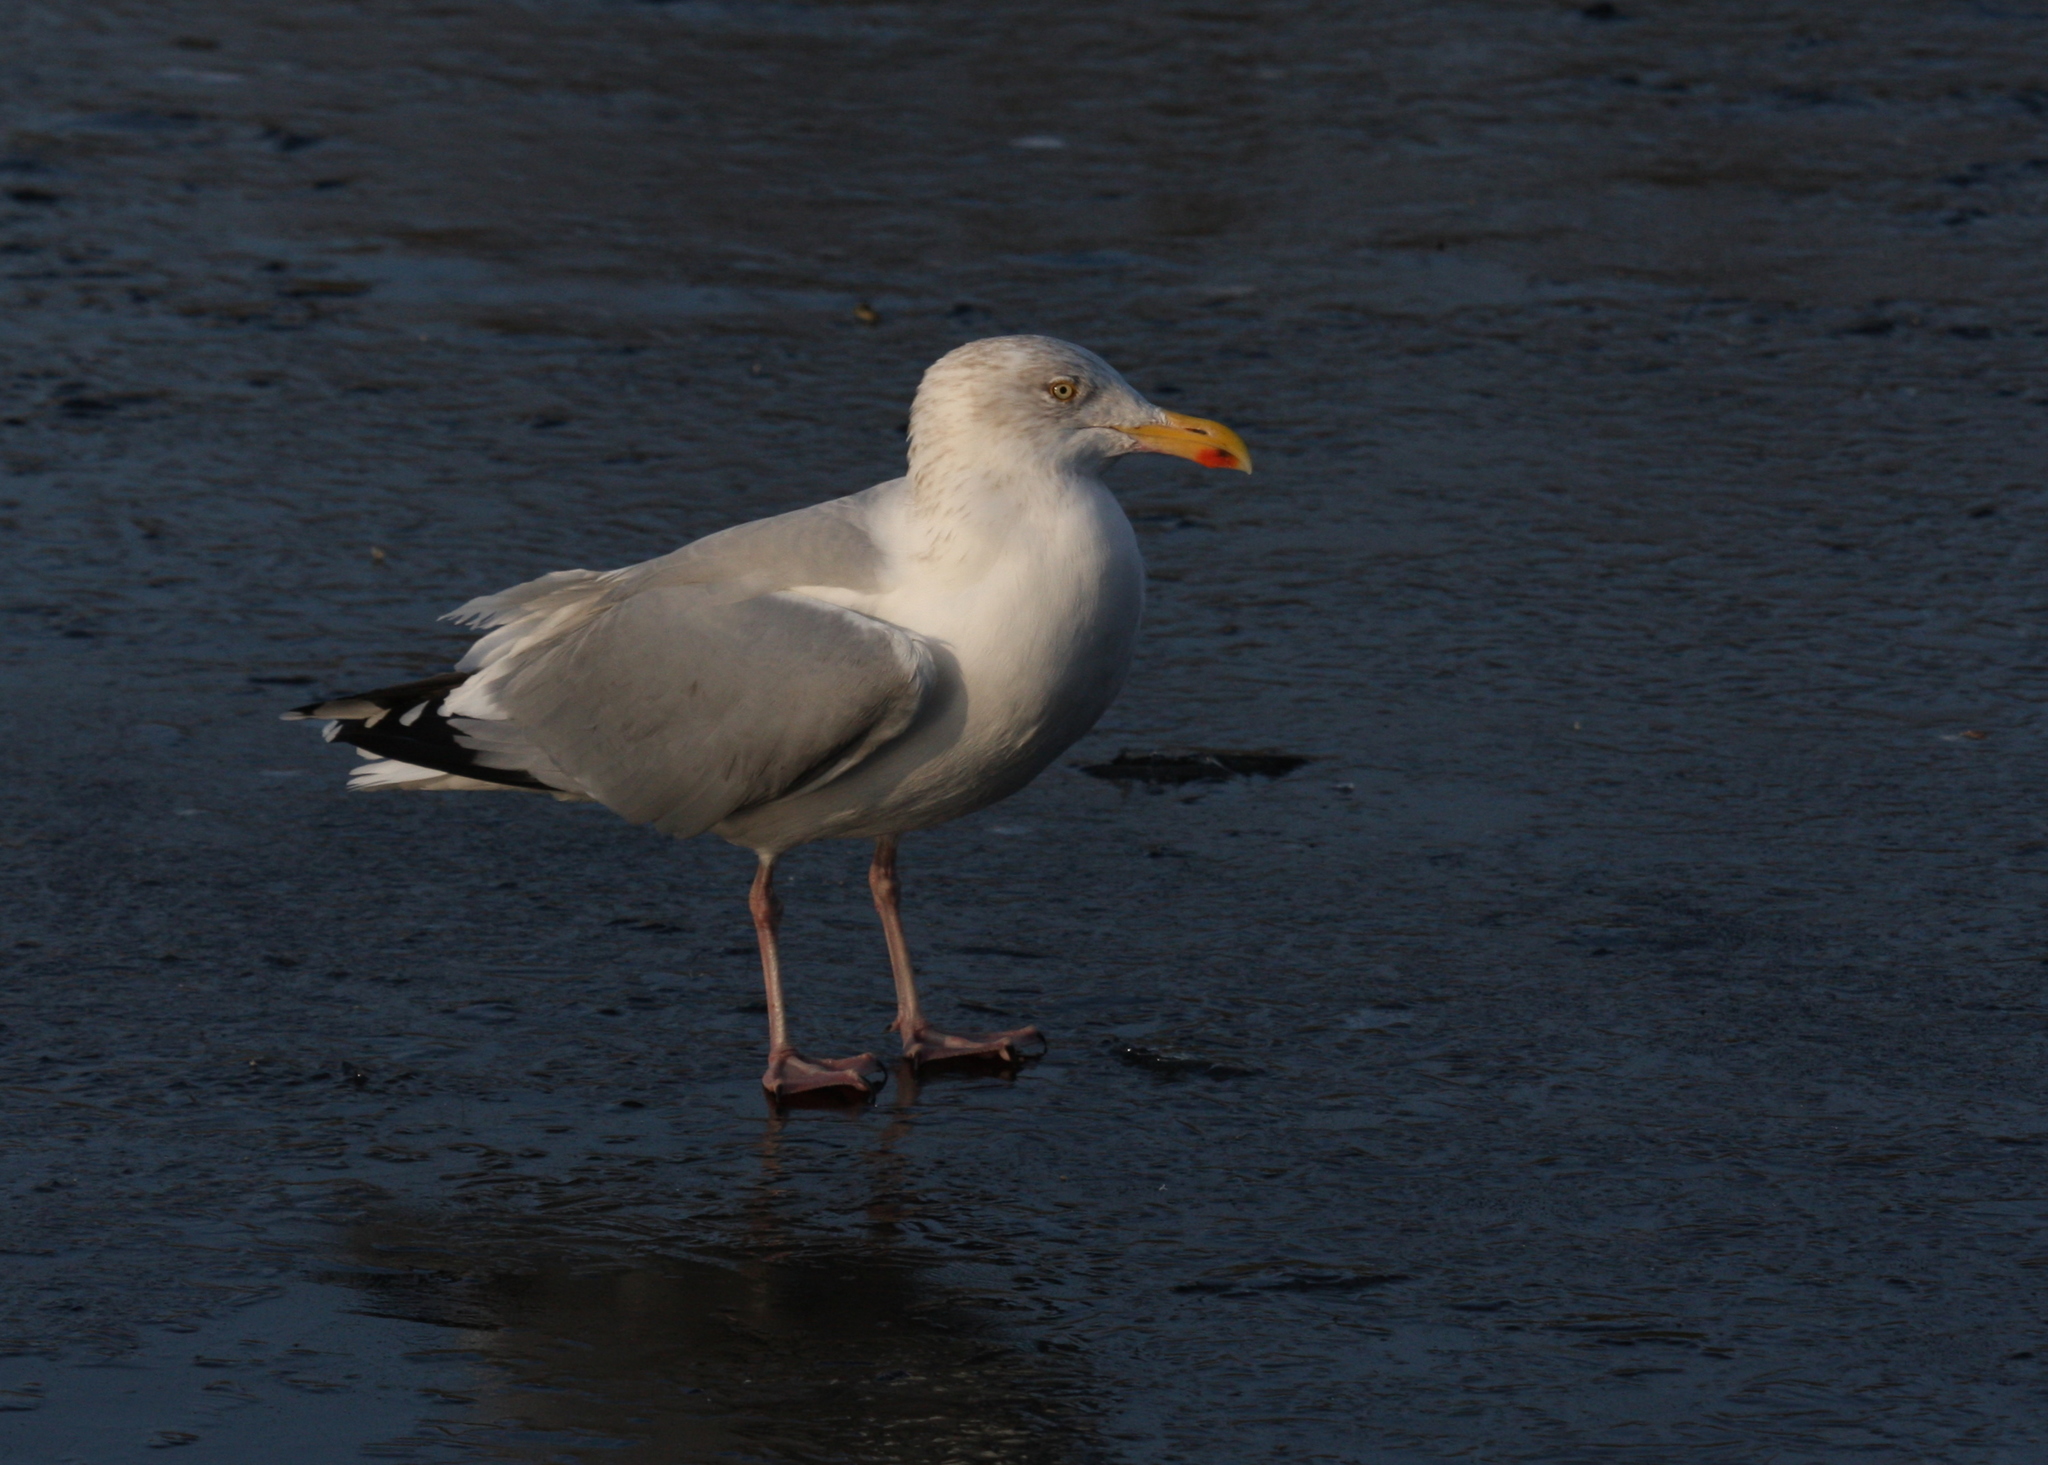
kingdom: Animalia
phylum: Chordata
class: Aves
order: Charadriiformes
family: Laridae
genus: Larus
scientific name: Larus argentatus
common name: Herring gull
